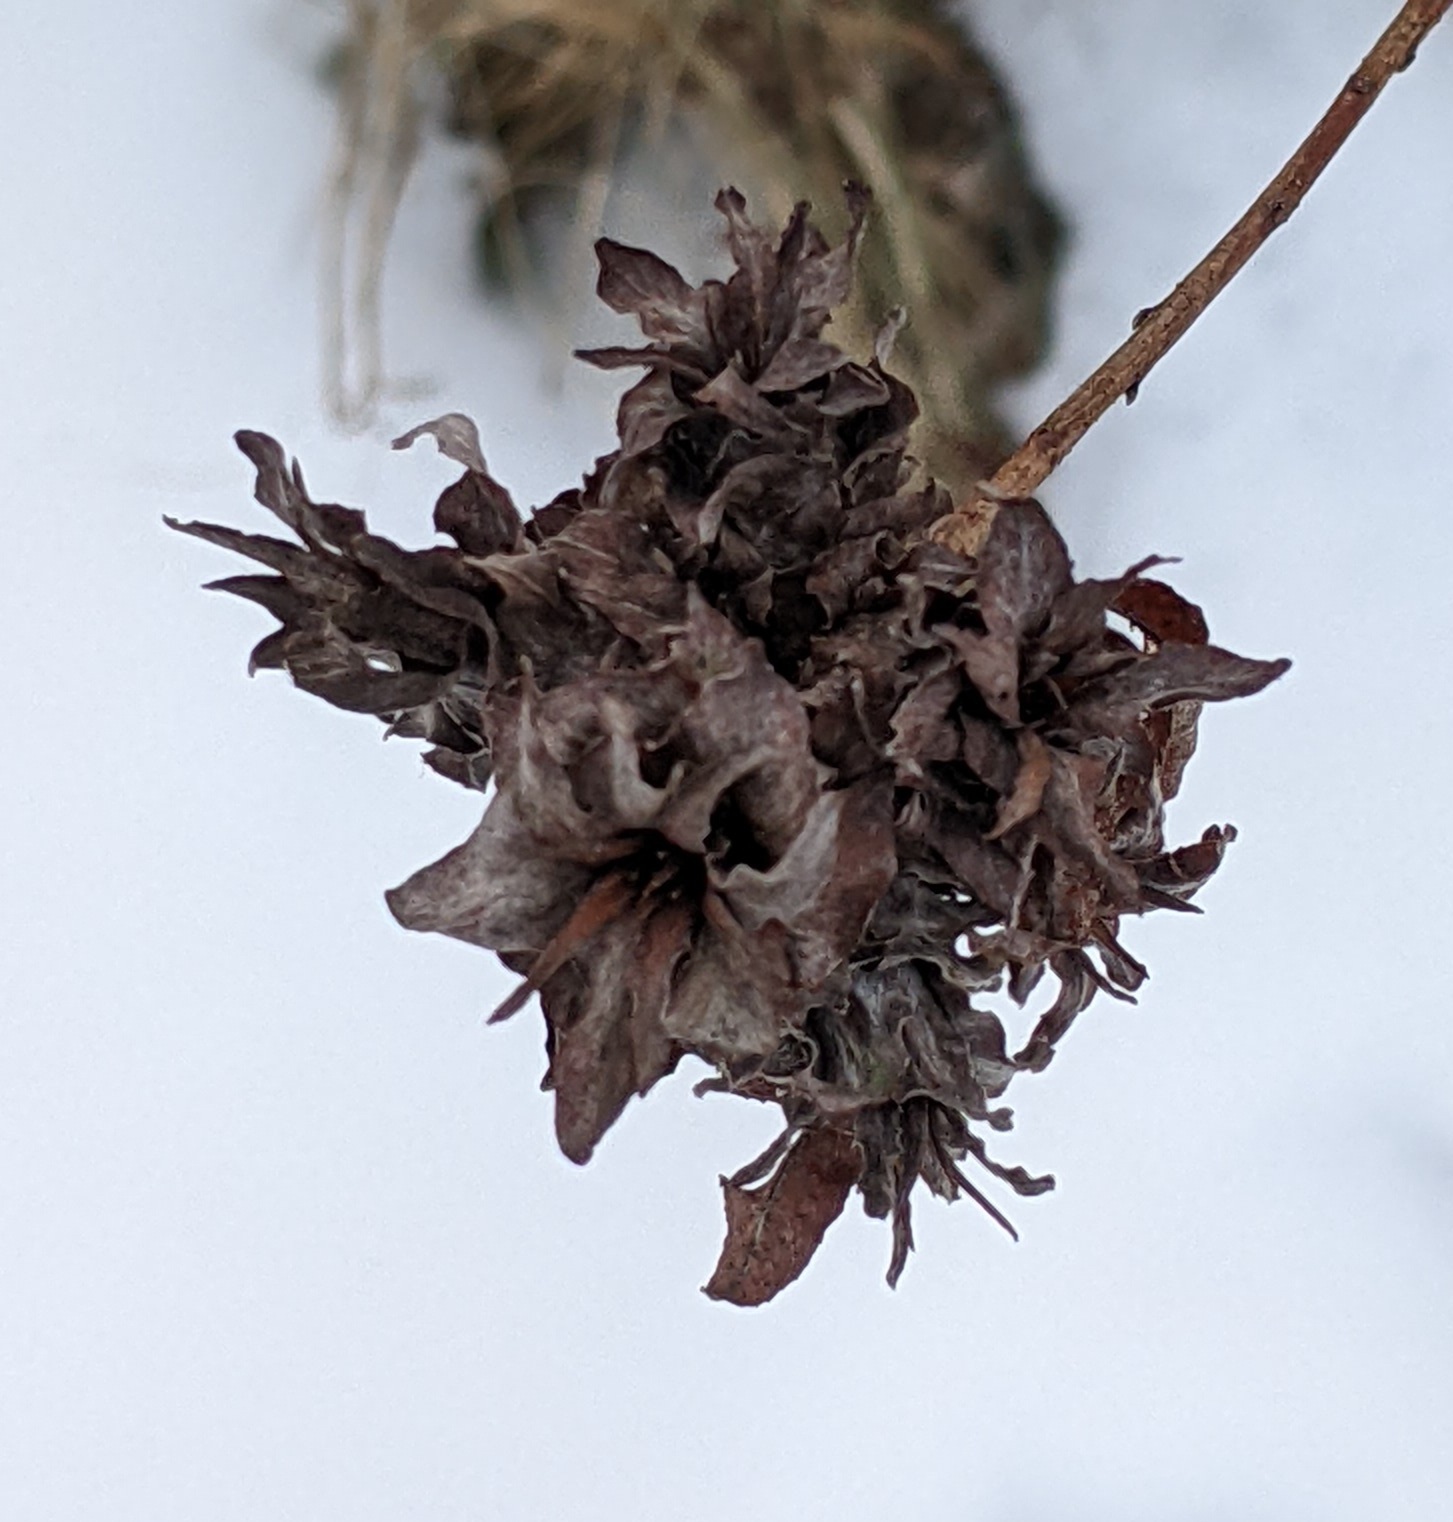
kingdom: Animalia
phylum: Arthropoda
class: Insecta
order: Diptera
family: Cecidomyiidae
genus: Rabdophaga
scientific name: Rabdophaga salicisbrassicoides
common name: Willow cabbagegall midge
